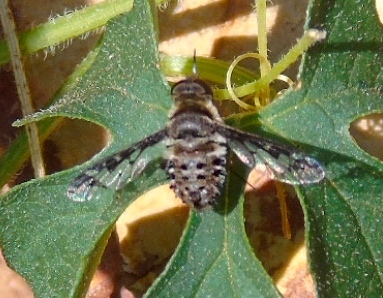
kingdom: Animalia
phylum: Arthropoda
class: Insecta
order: Diptera
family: Bombyliidae
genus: Lepidanthrax
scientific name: Lepidanthrax
